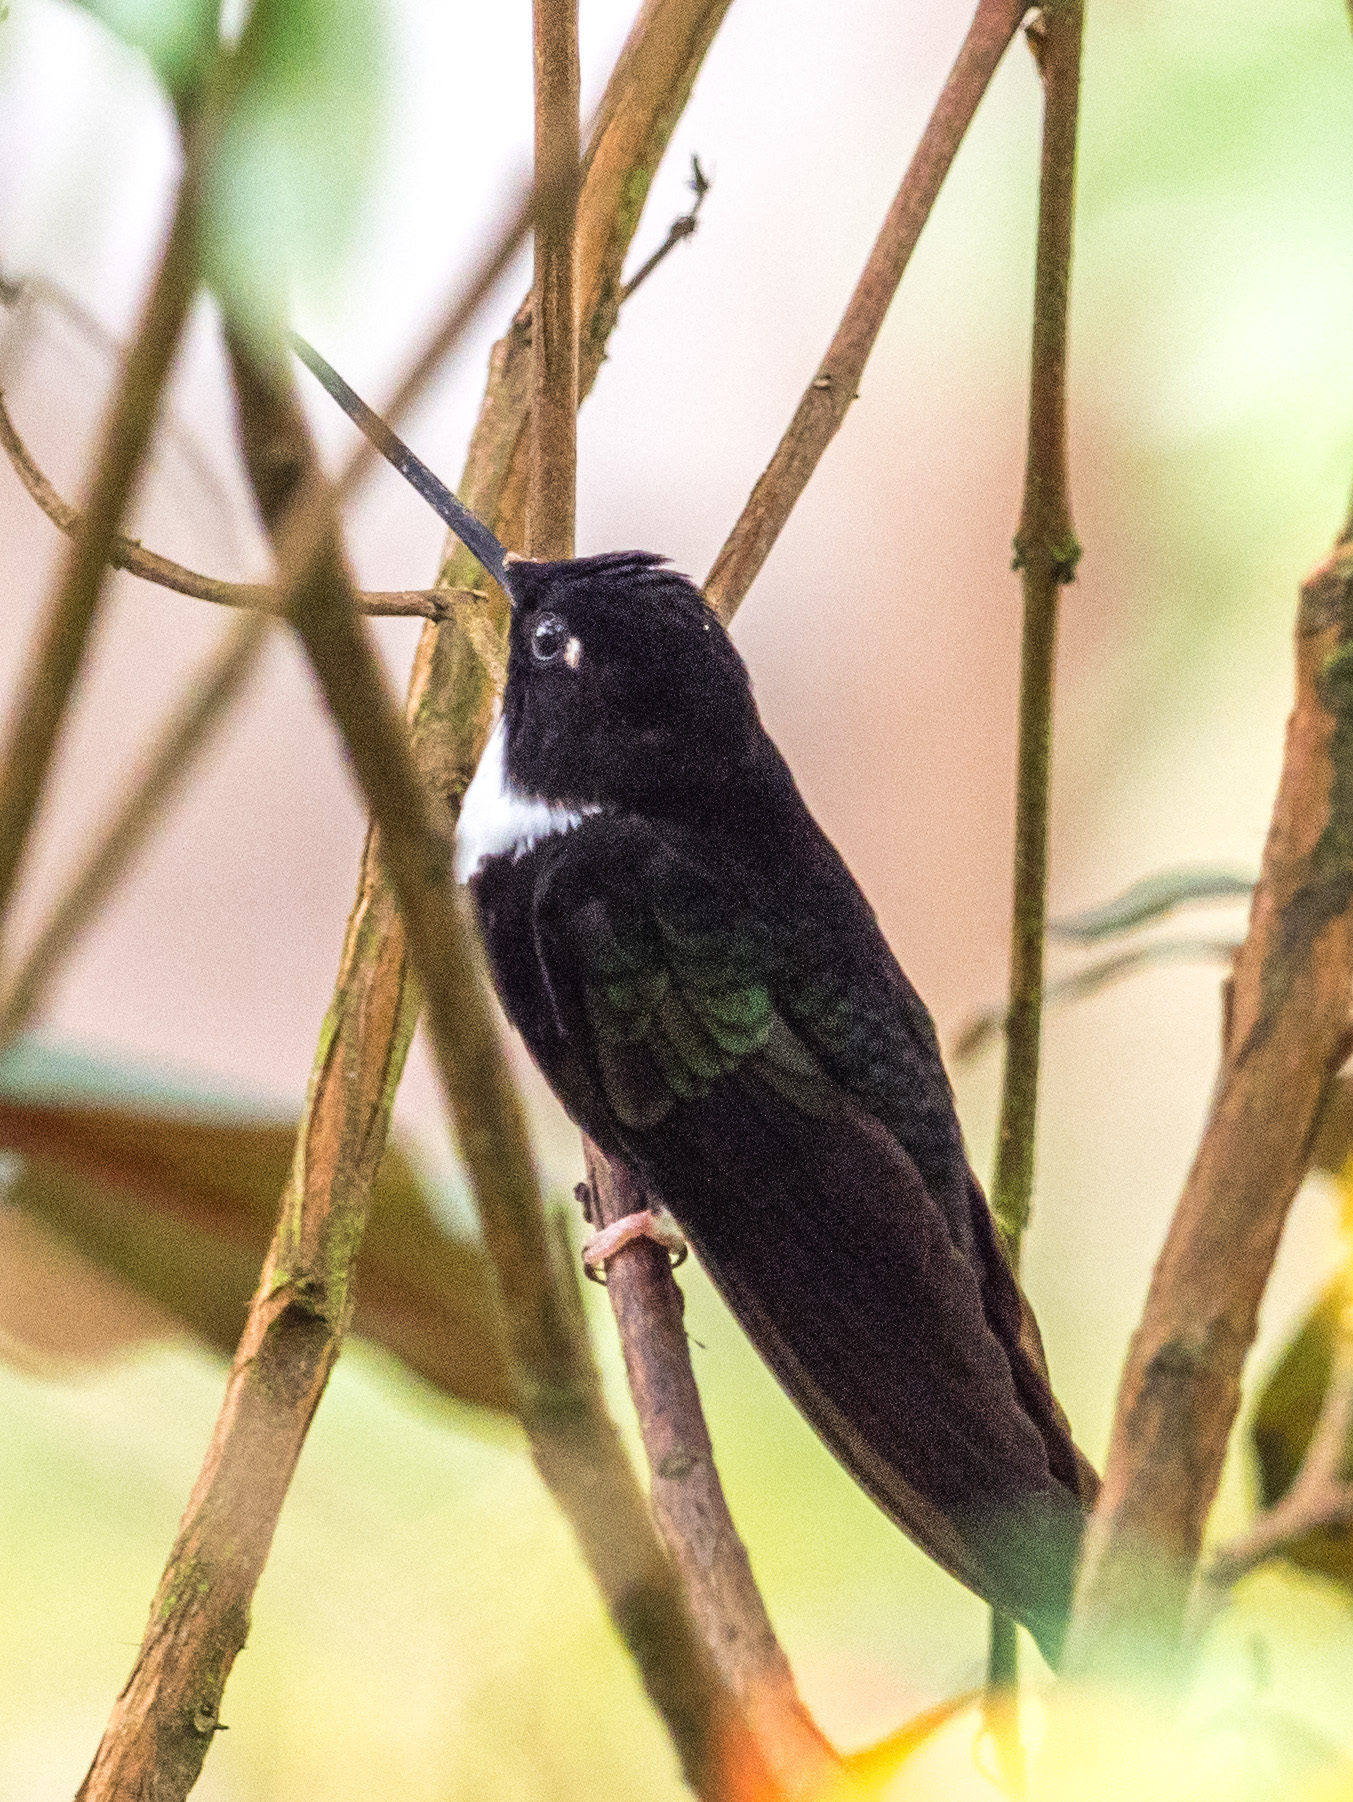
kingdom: Animalia
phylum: Chordata
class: Aves
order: Apodiformes
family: Trochilidae
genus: Coeligena
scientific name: Coeligena torquata
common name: Collared inca
